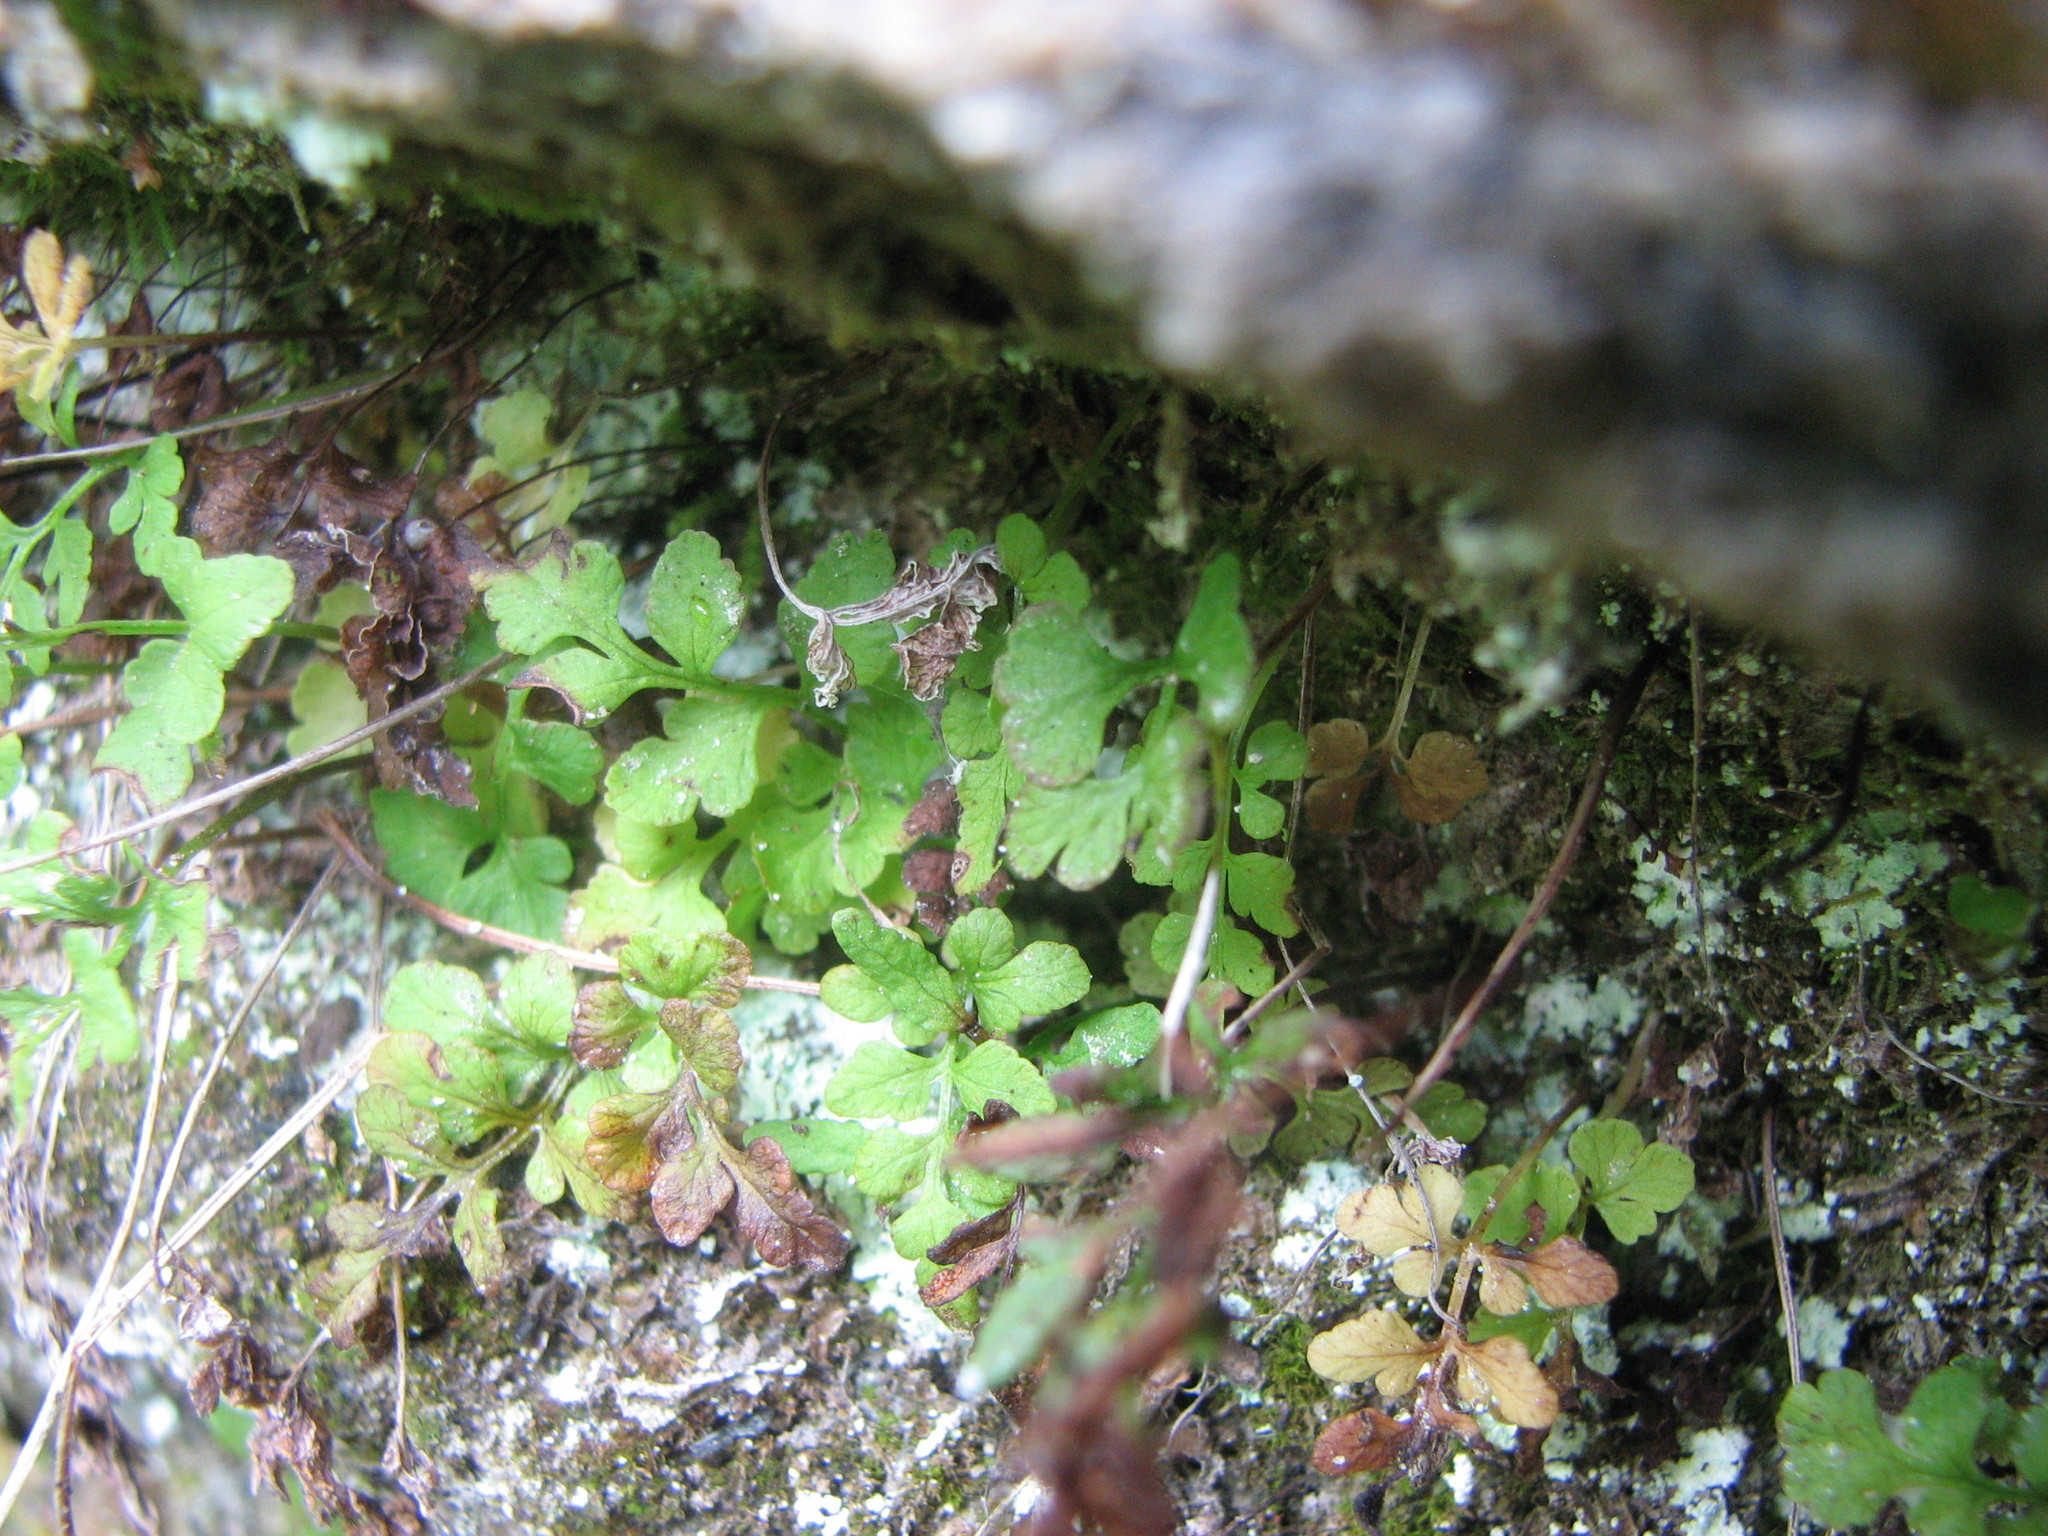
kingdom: Plantae
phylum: Tracheophyta
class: Polypodiopsida
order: Polypodiales
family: Pteridaceae
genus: Cryptogramma
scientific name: Cryptogramma stelleri
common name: Cliff-brake
